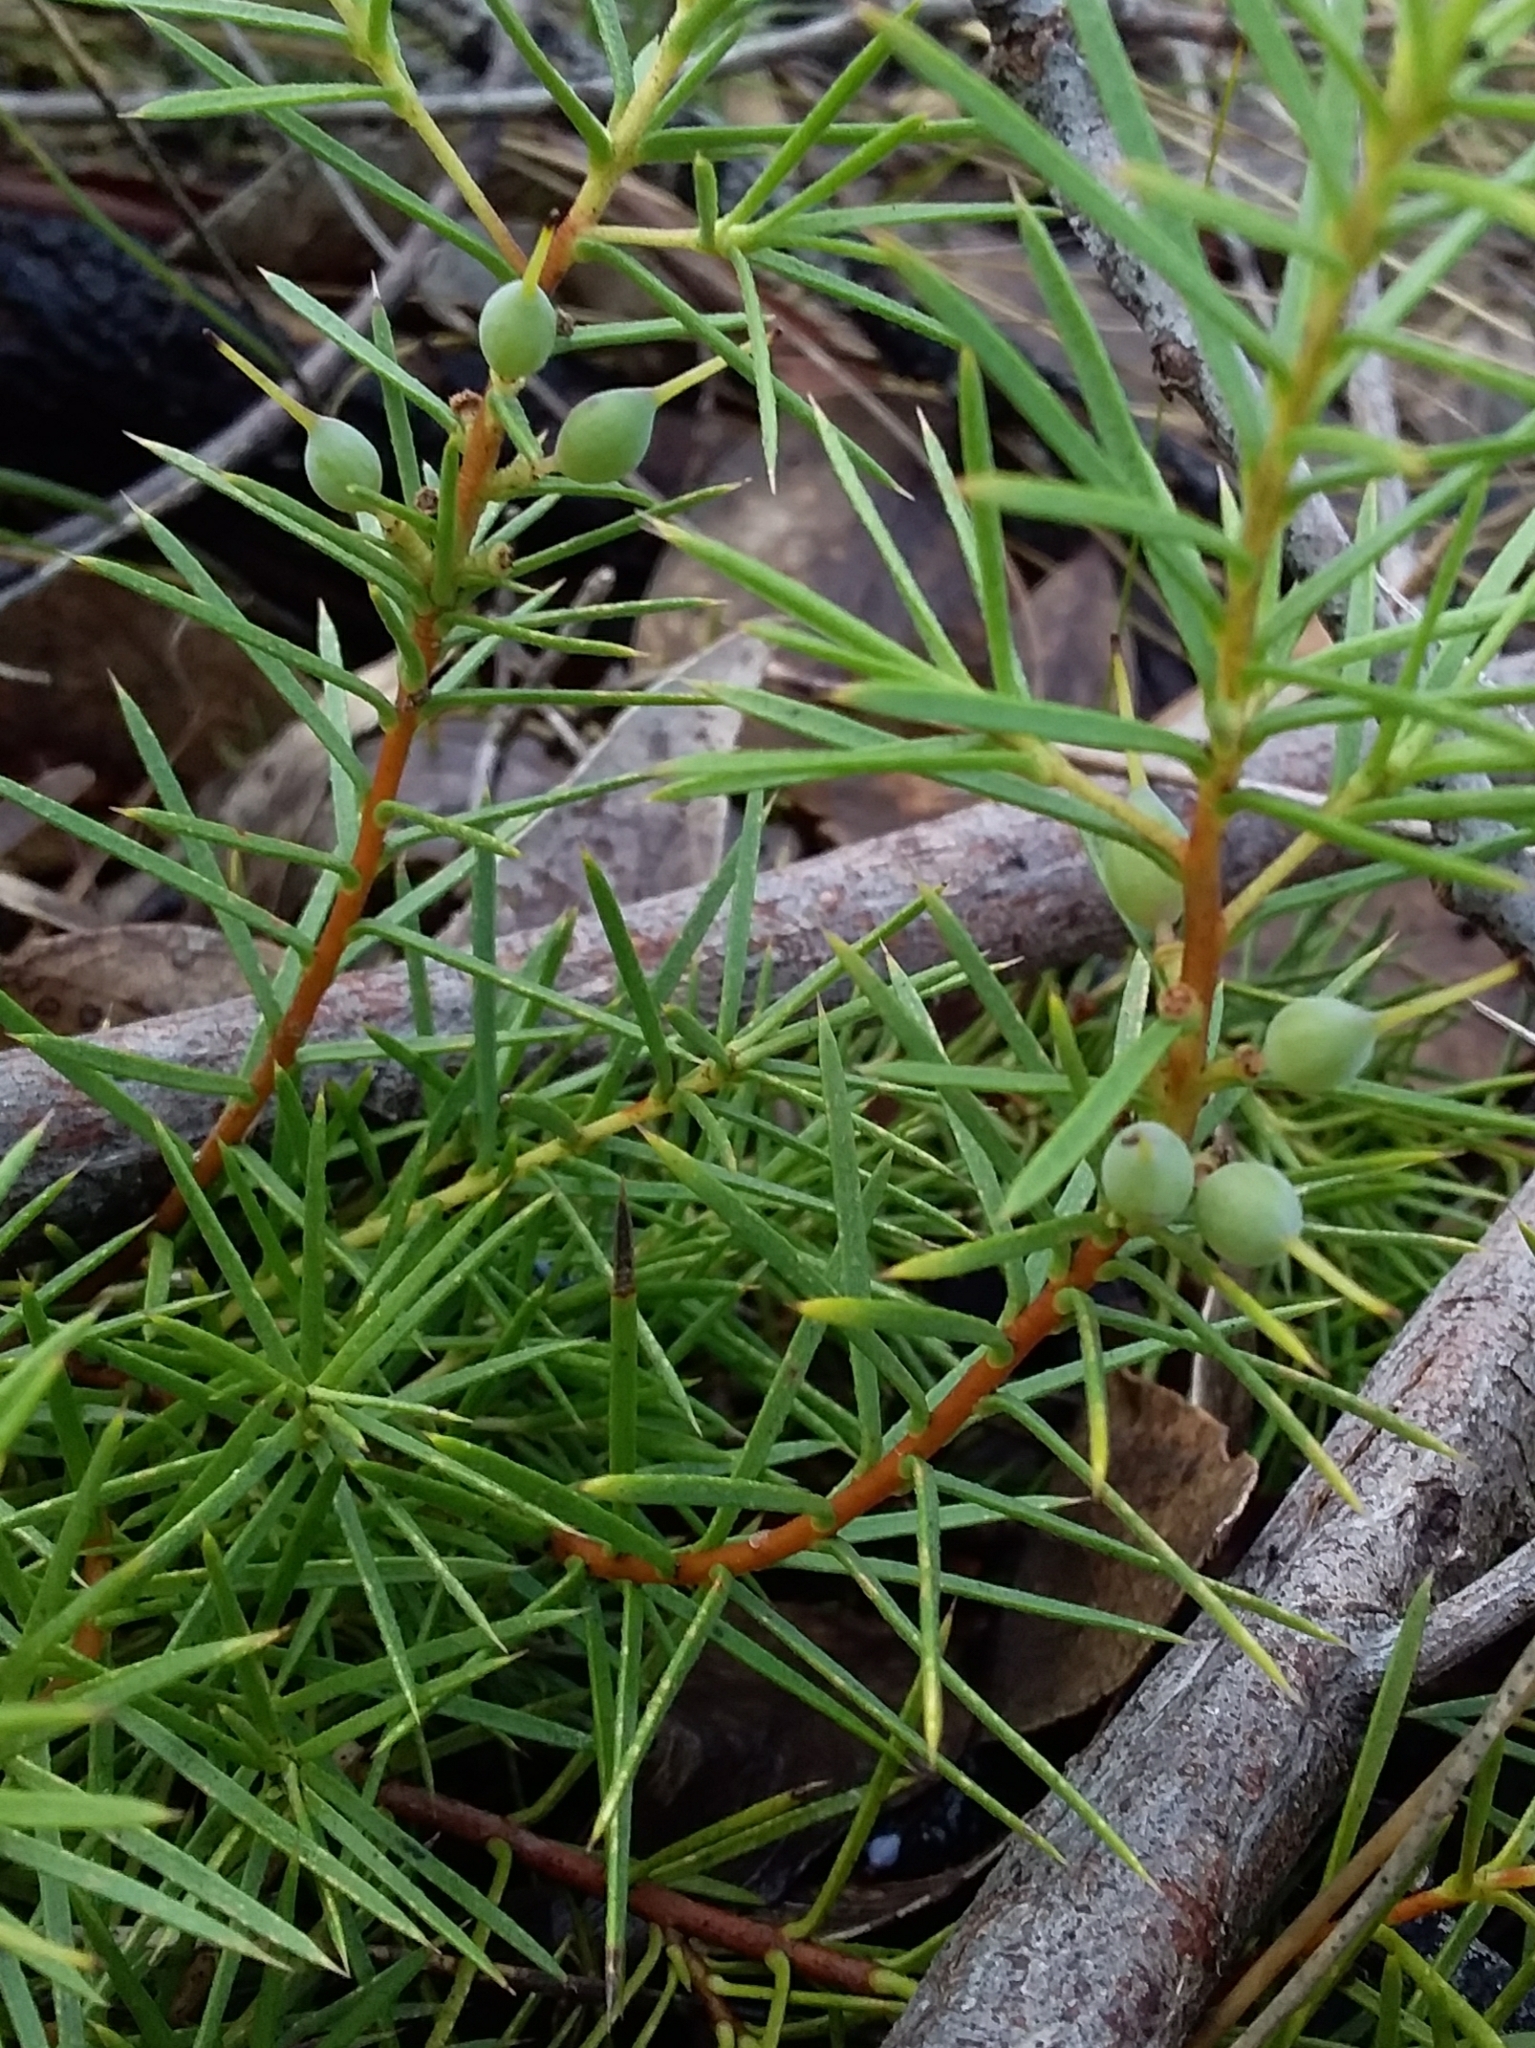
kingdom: Plantae
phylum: Tracheophyta
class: Magnoliopsida
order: Proteales
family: Proteaceae
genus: Persoonia
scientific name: Persoonia juniperina
